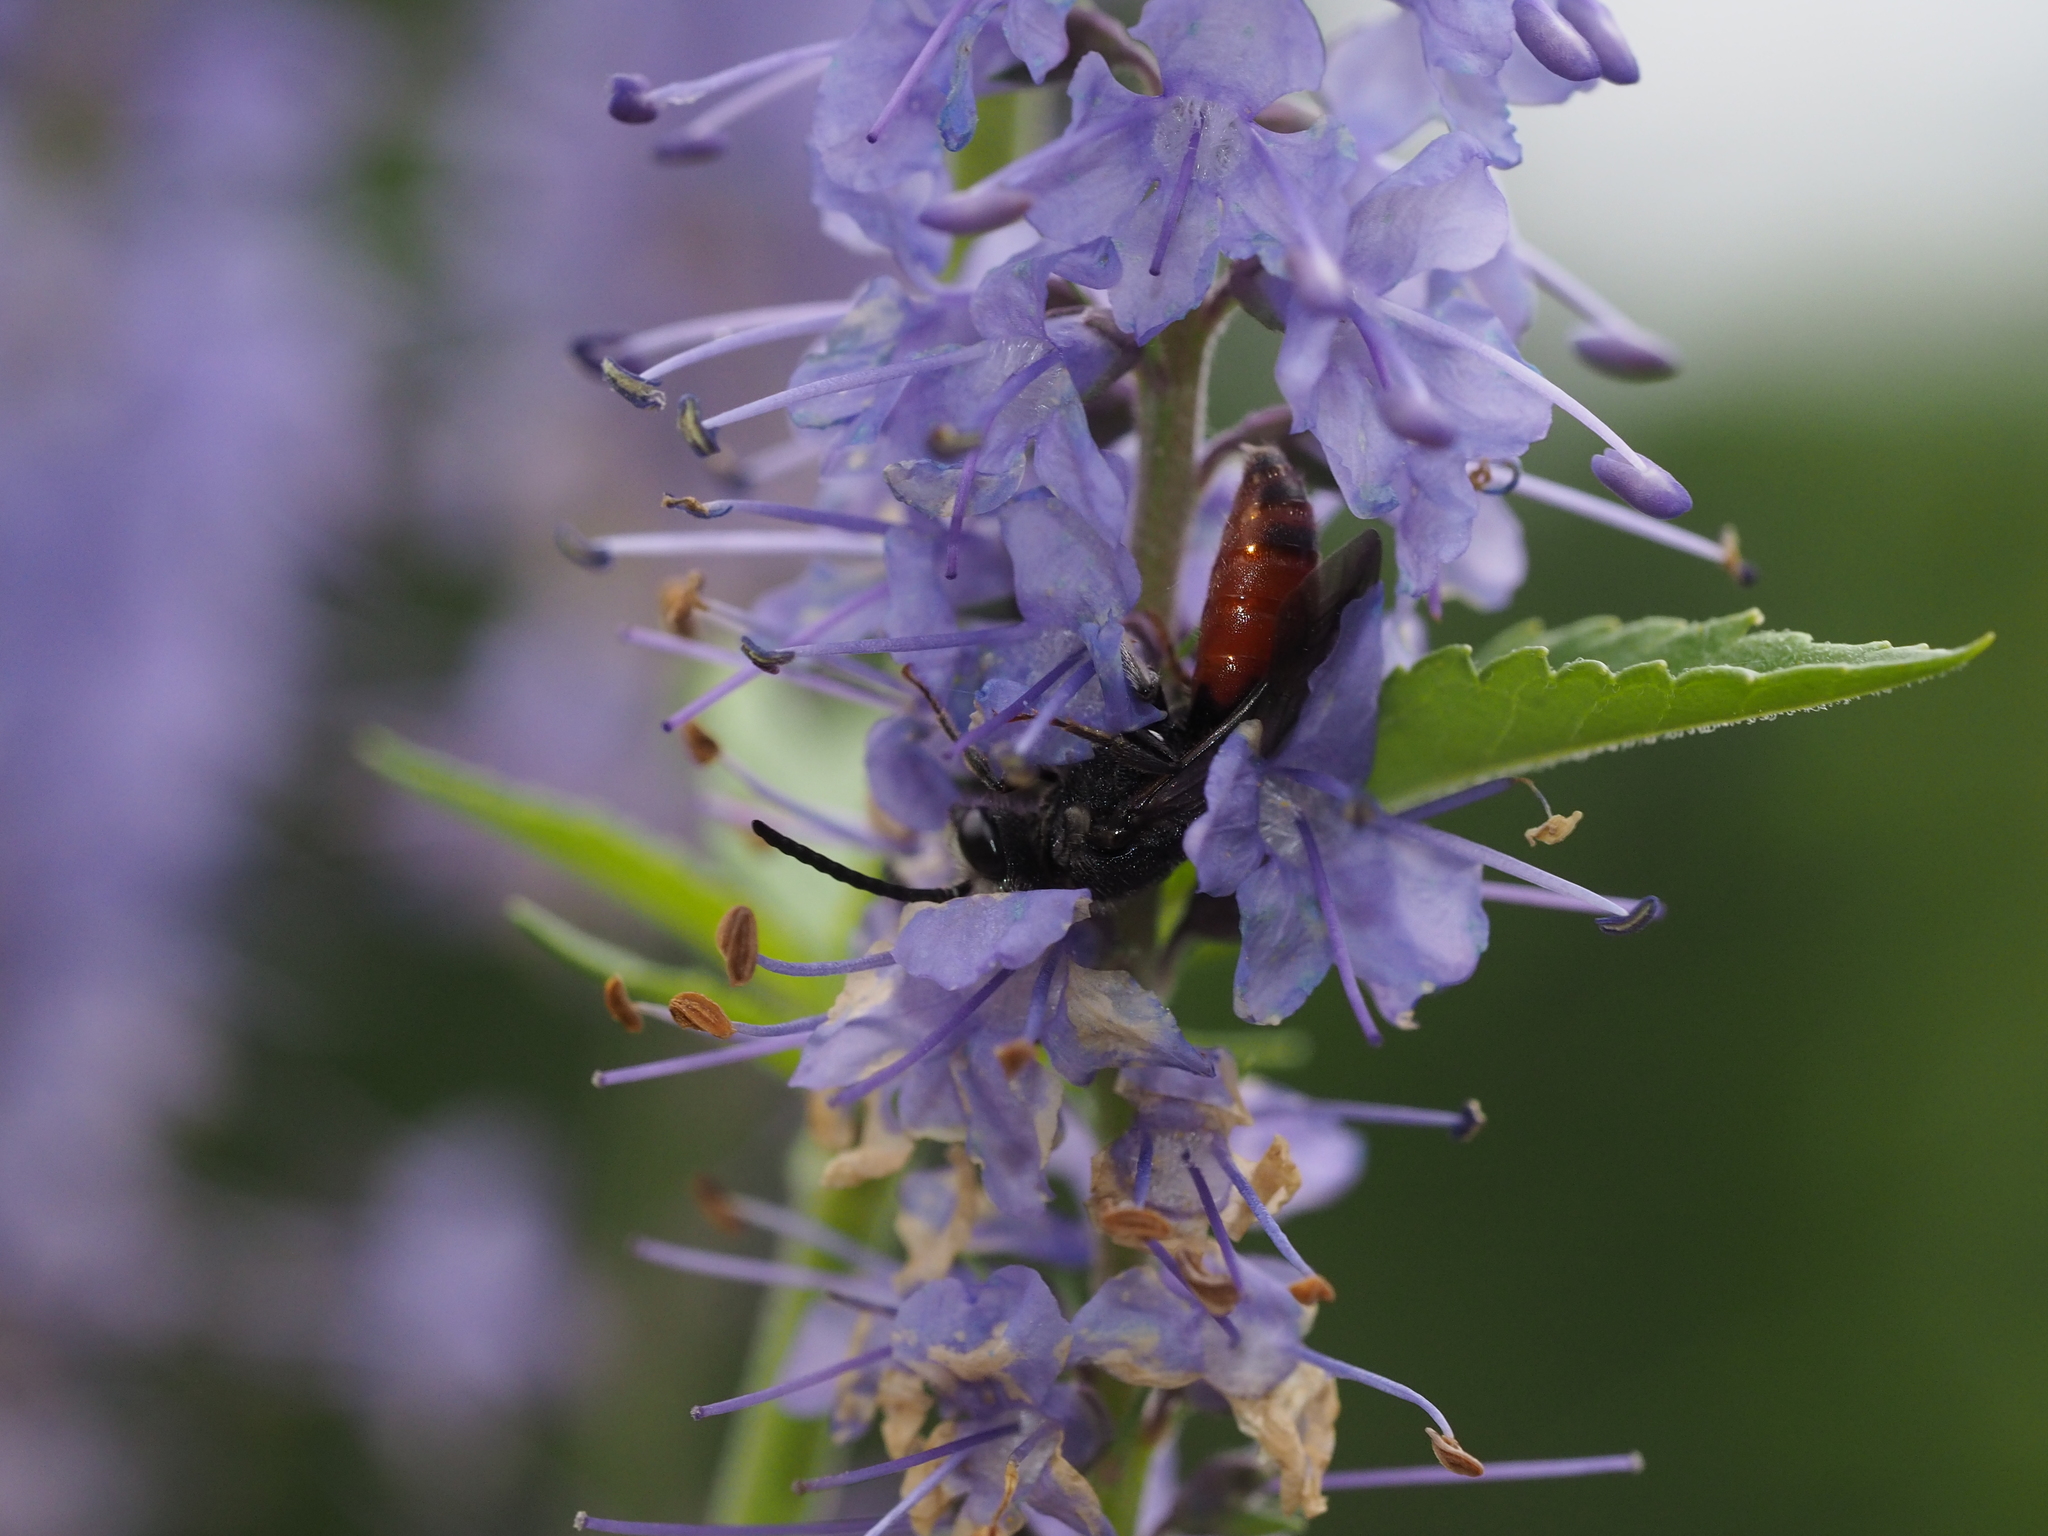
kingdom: Animalia
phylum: Arthropoda
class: Insecta
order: Hymenoptera
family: Halictidae
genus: Sphecodes
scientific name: Sphecodes
